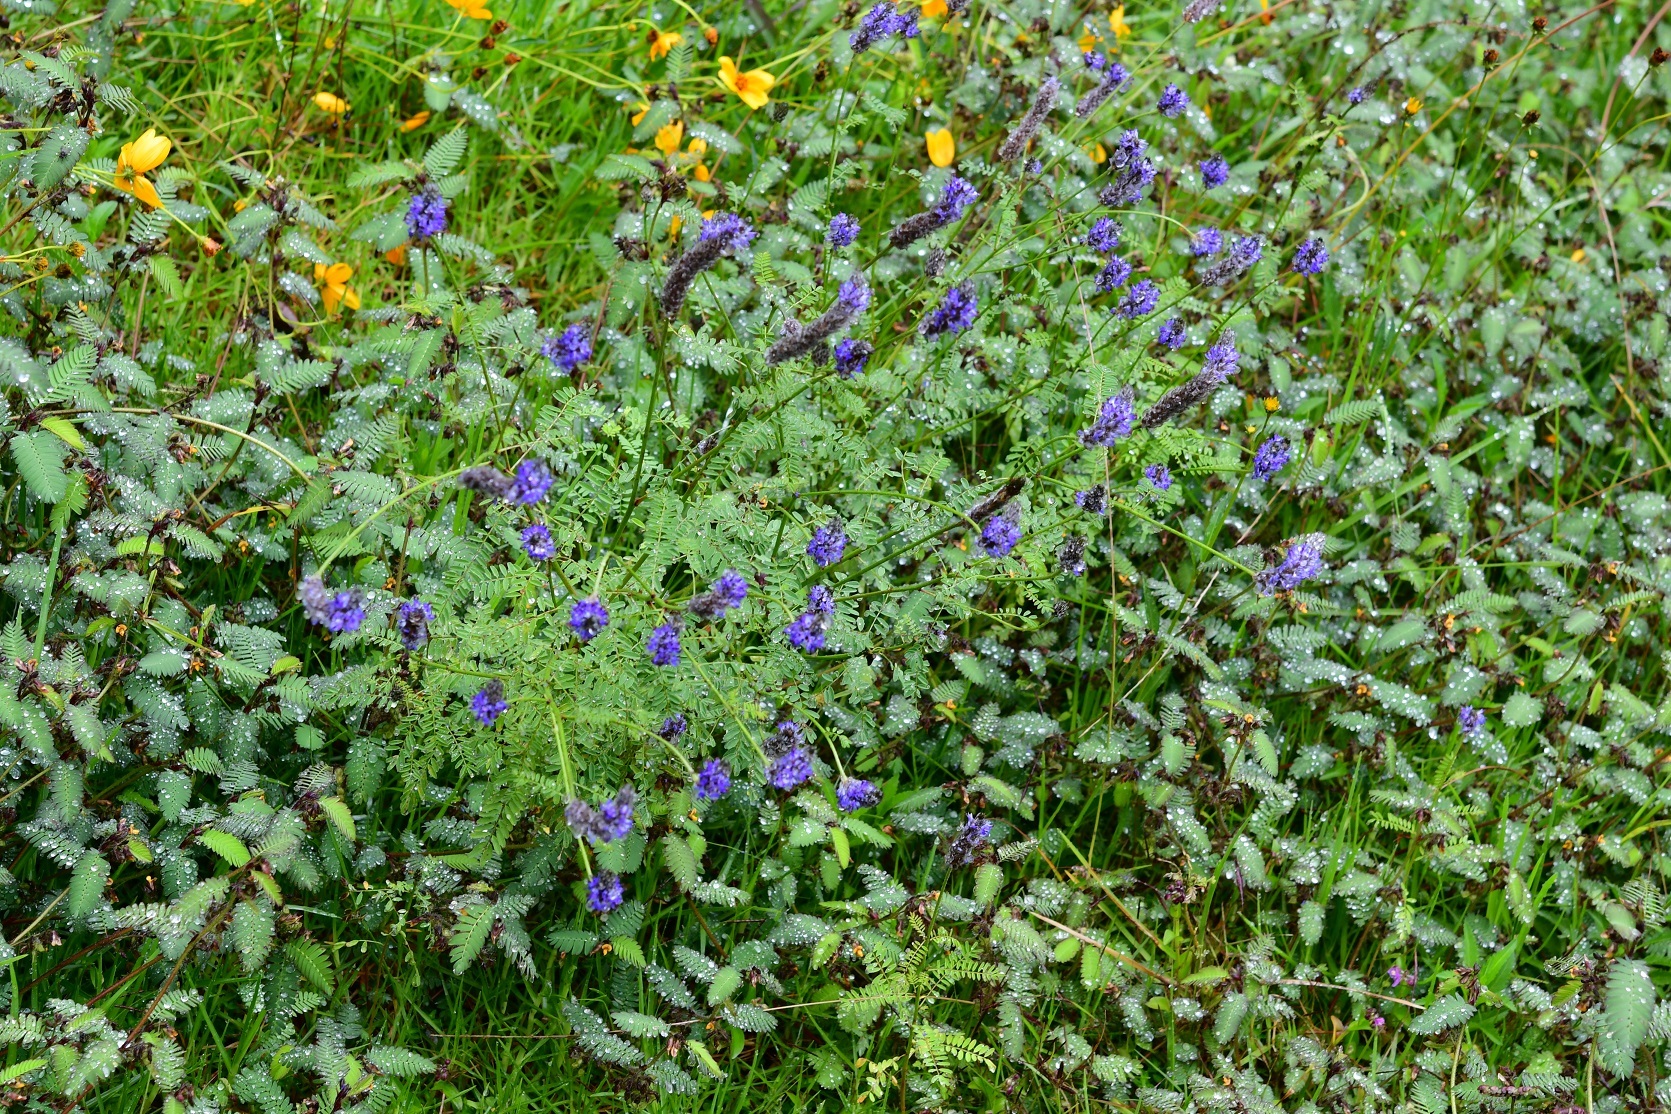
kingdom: Plantae
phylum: Tracheophyta
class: Magnoliopsida
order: Fabales
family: Fabaceae
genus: Dalea
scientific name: Dalea leporina
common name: Foxtail dalea
